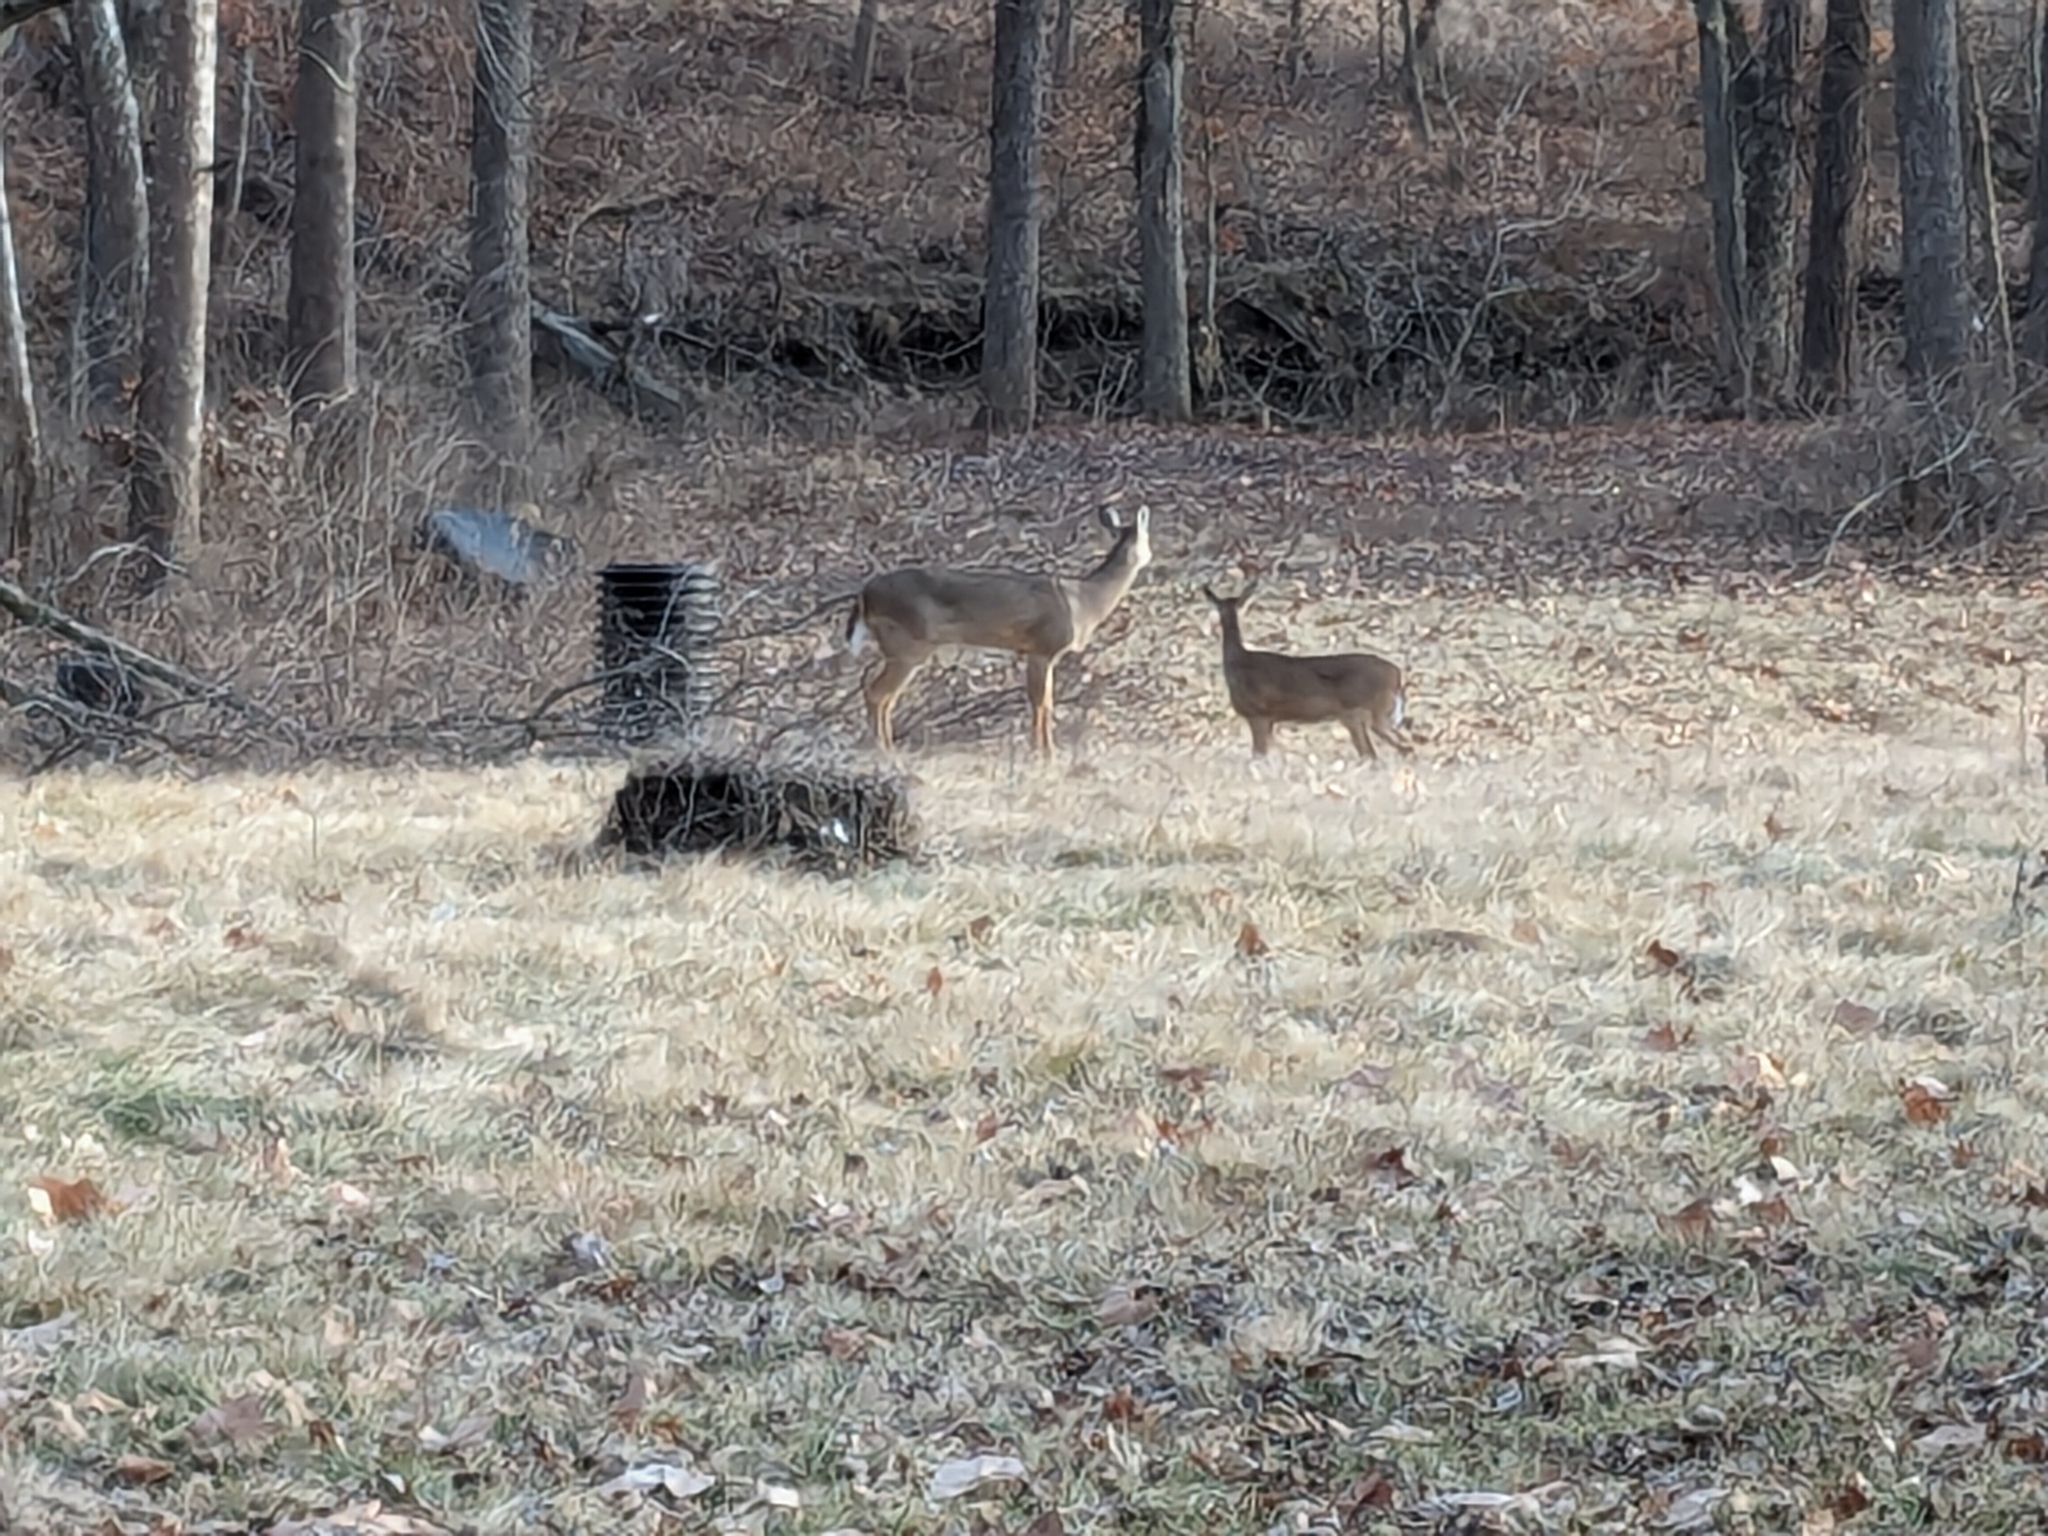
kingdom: Animalia
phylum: Chordata
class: Mammalia
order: Artiodactyla
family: Cervidae
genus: Odocoileus
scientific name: Odocoileus virginianus
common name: White-tailed deer
